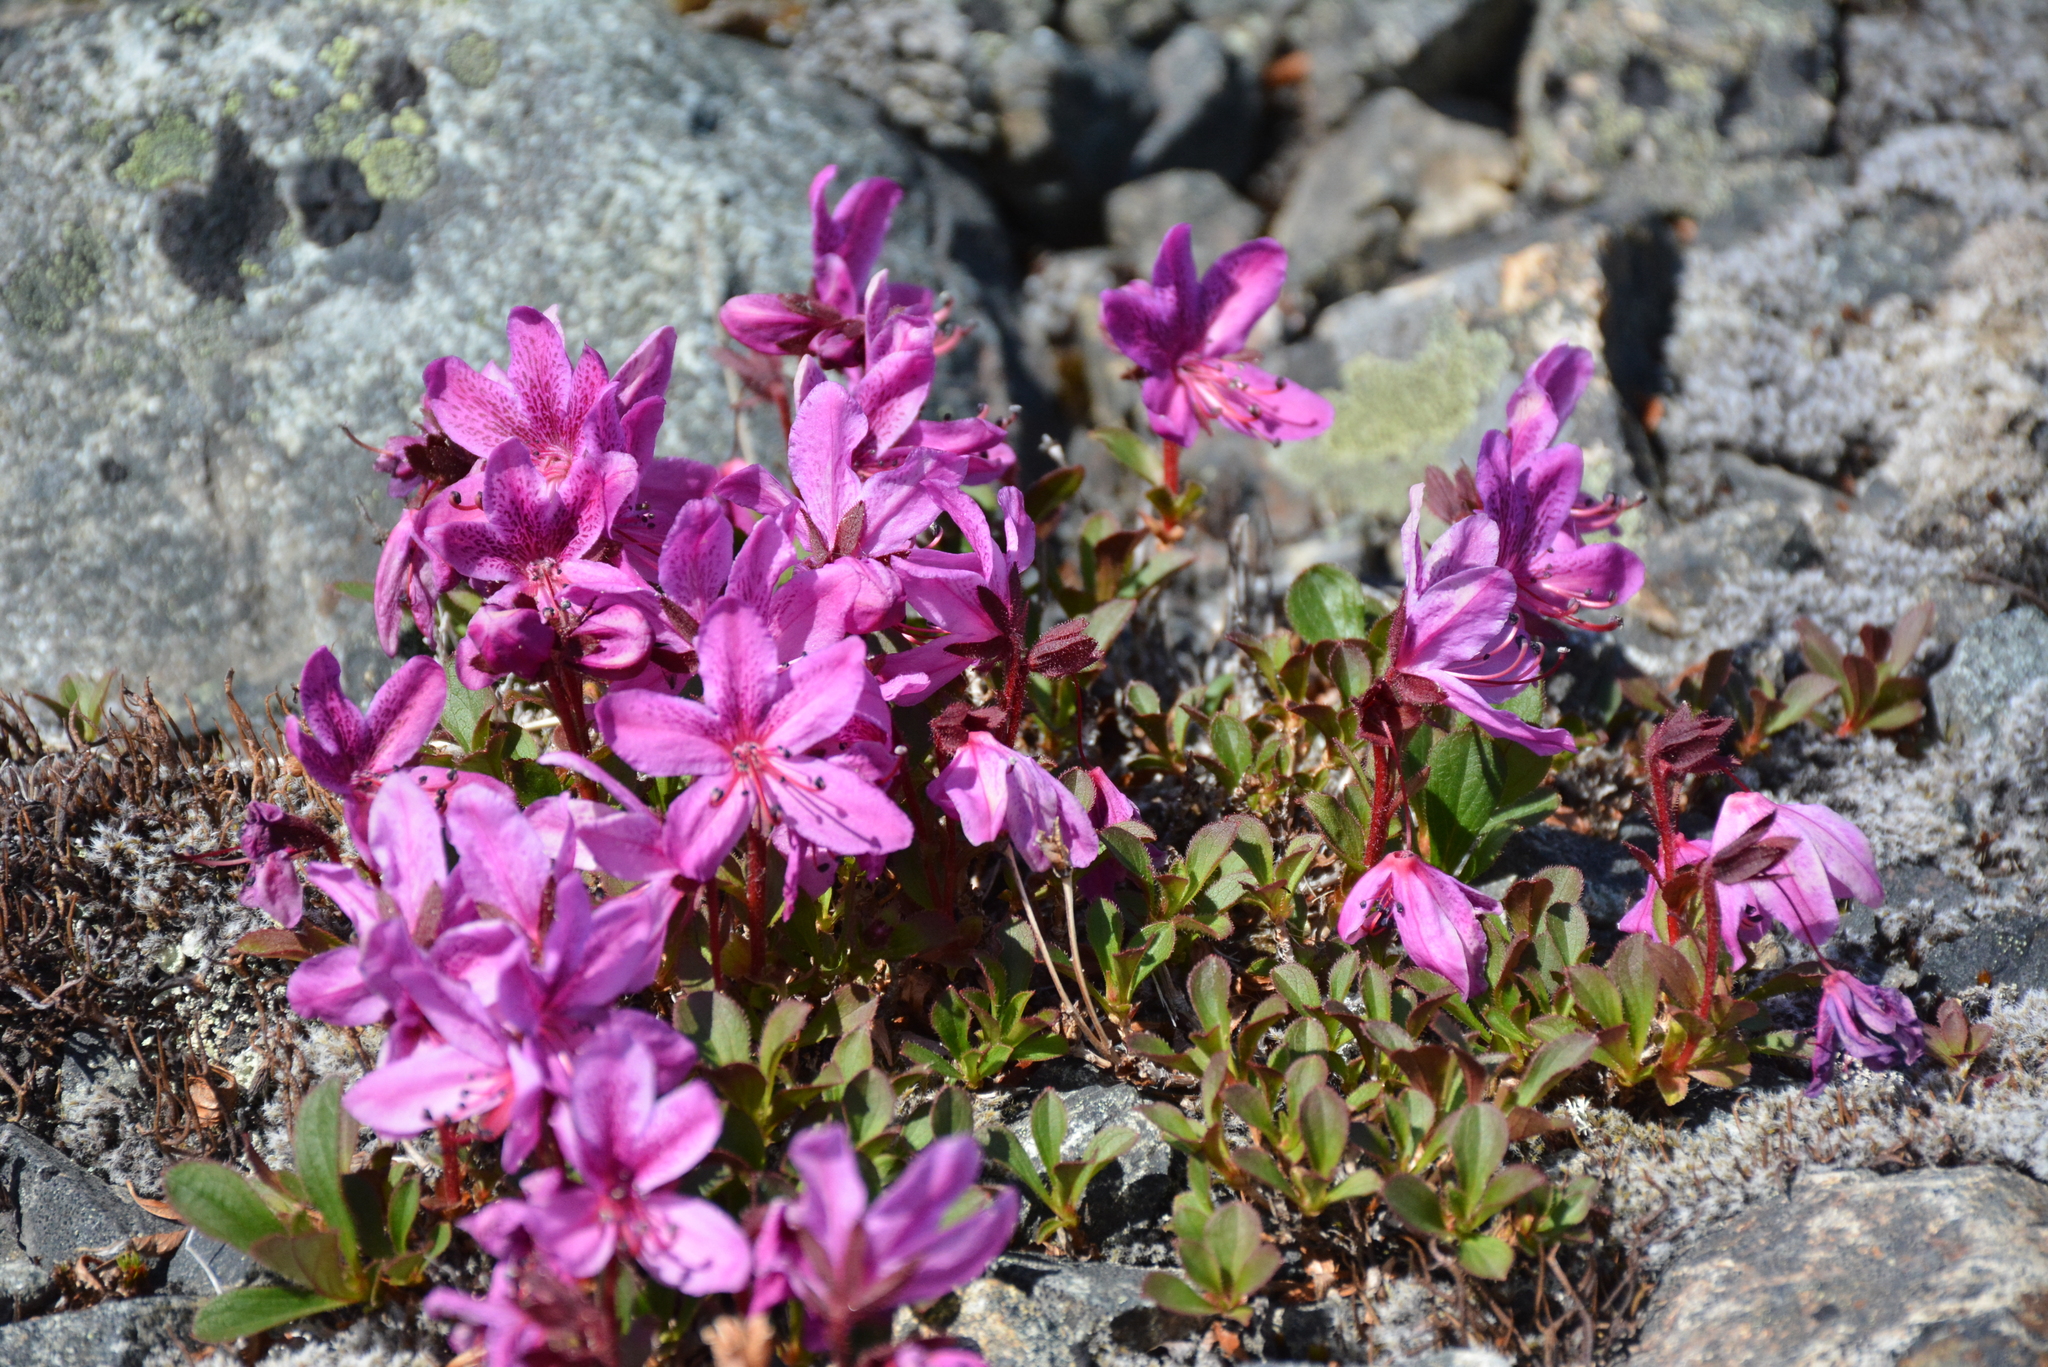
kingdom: Plantae
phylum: Tracheophyta
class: Magnoliopsida
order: Ericales
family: Ericaceae
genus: Rhododendron
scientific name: Rhododendron camtschaticum
